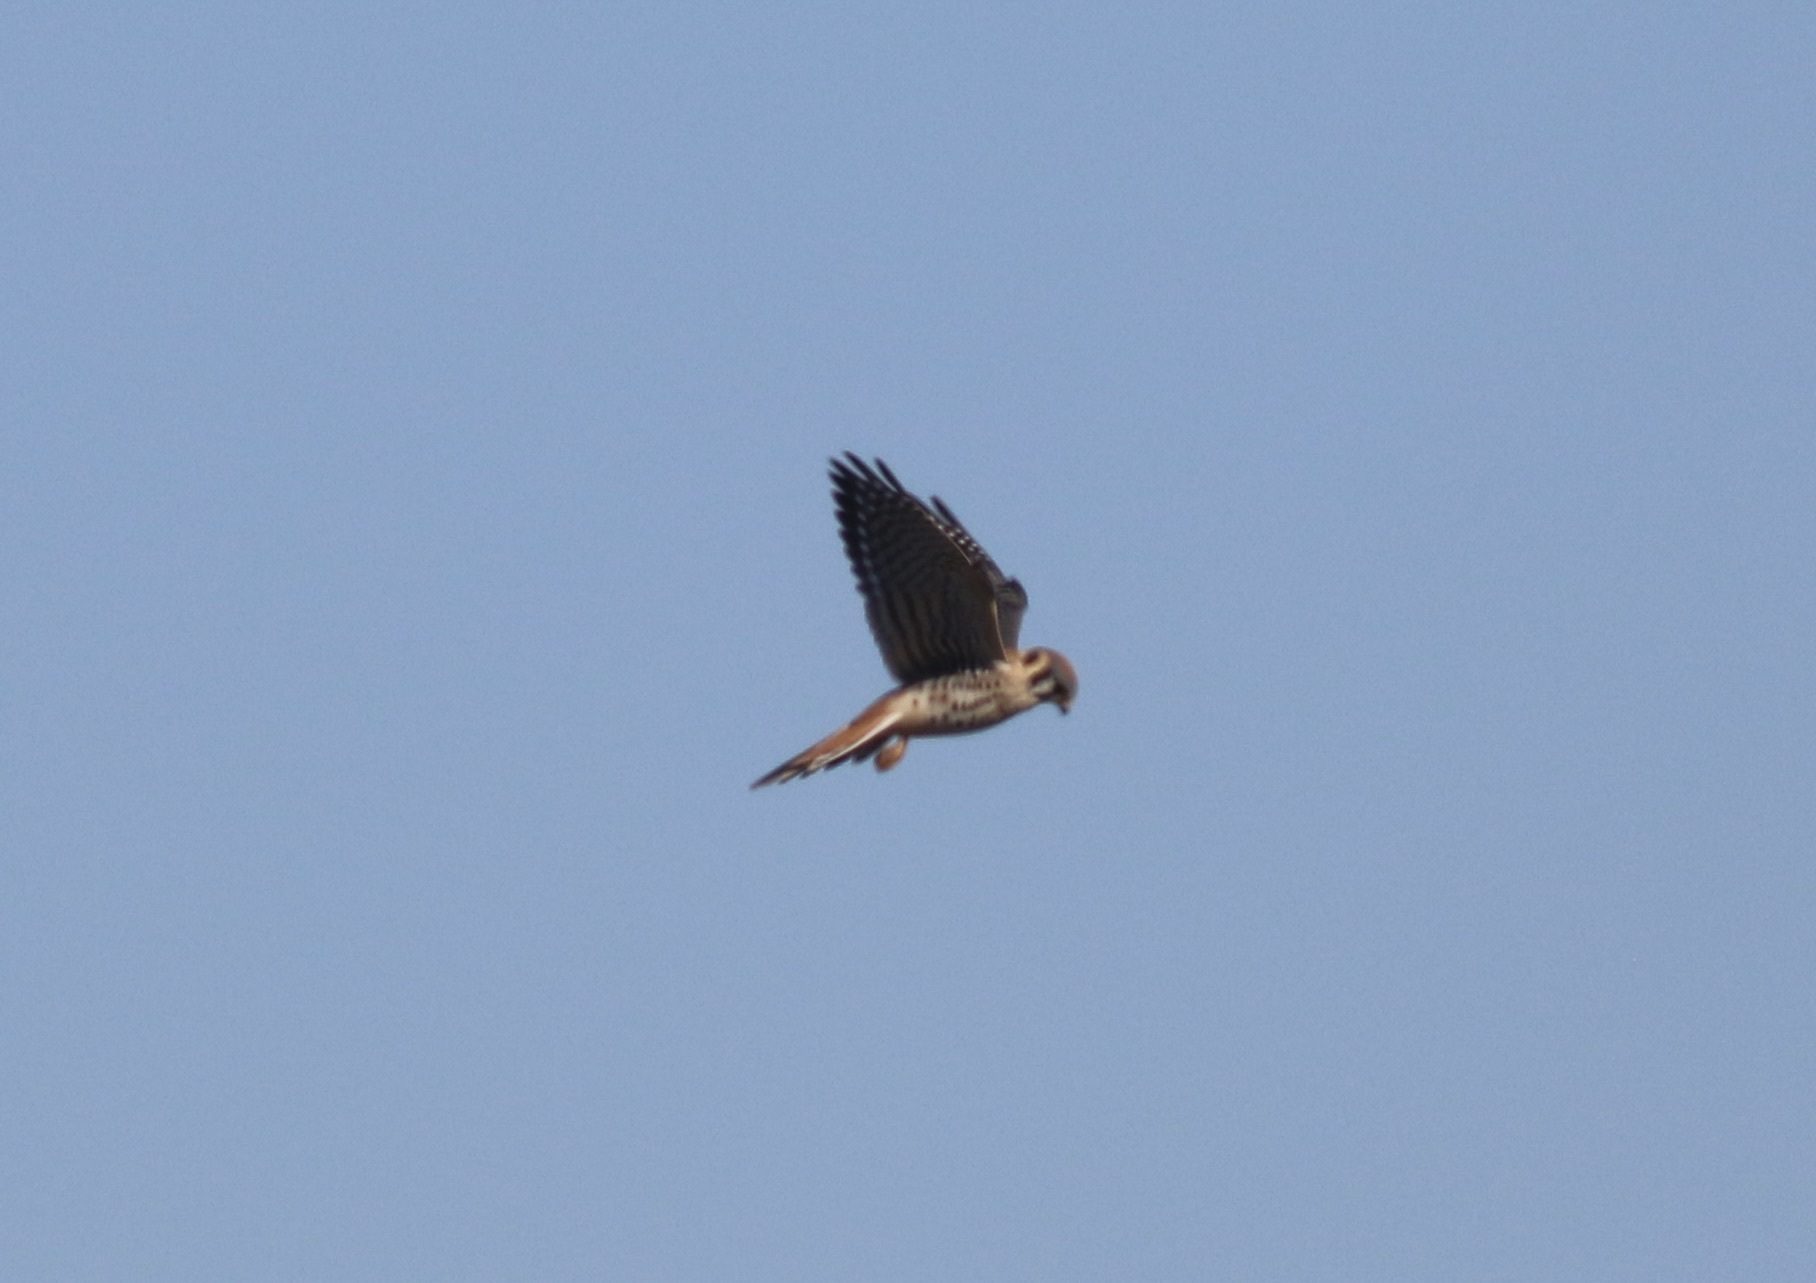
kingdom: Animalia
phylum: Chordata
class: Aves
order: Falconiformes
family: Falconidae
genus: Falco
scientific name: Falco sparverius
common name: American kestrel
